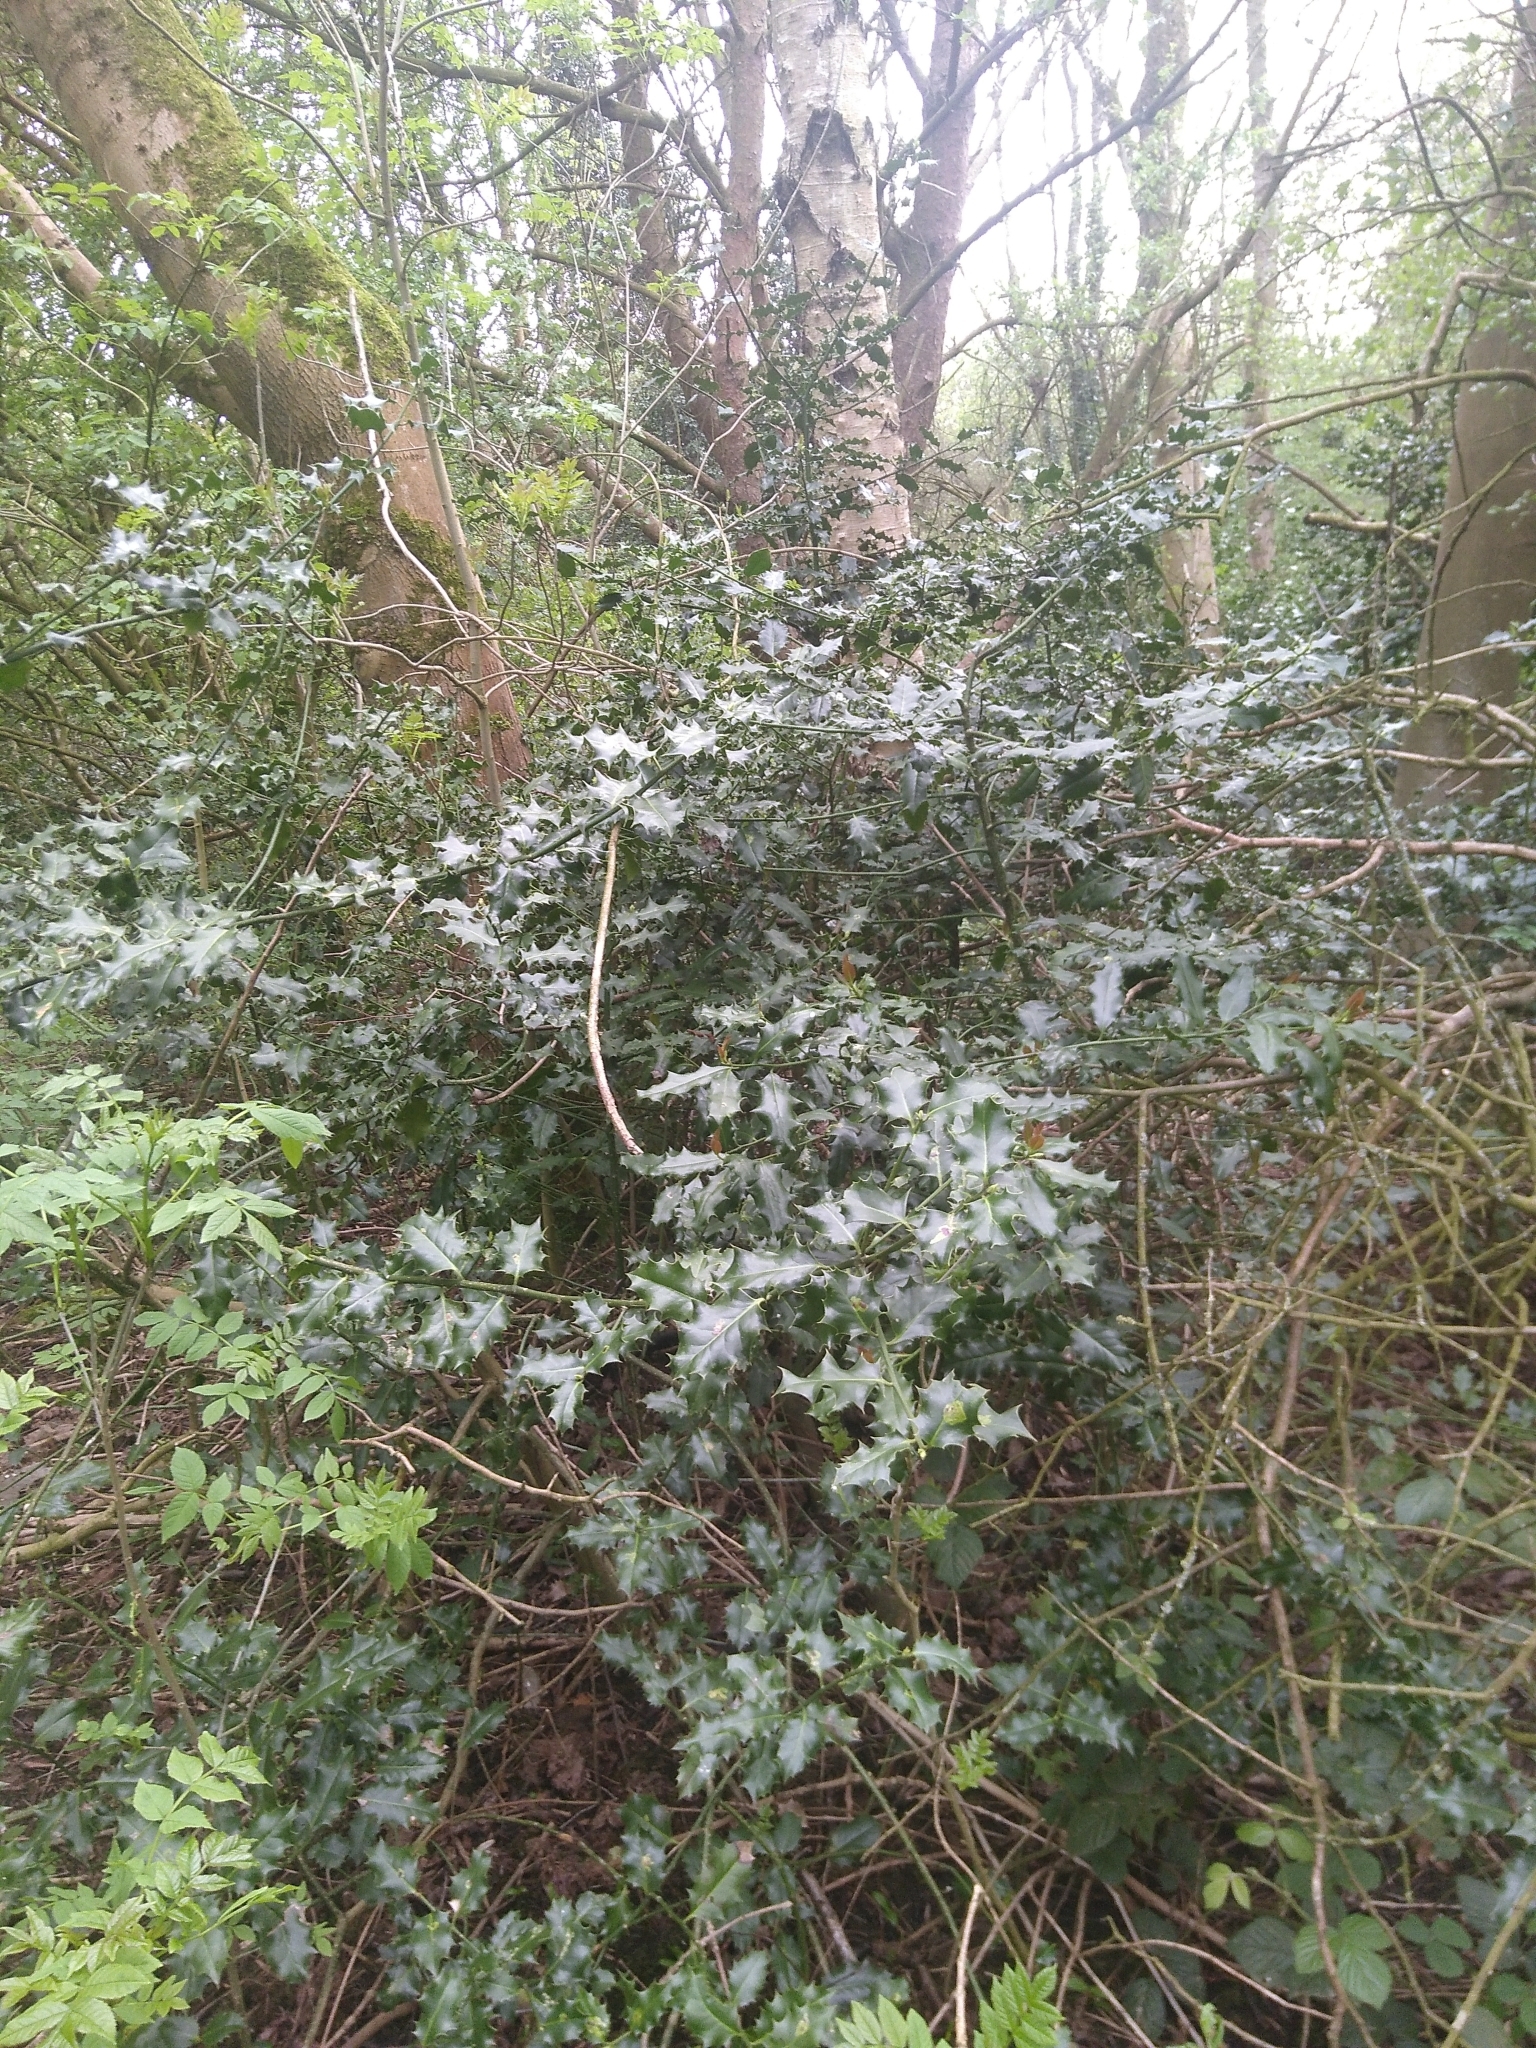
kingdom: Plantae
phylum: Tracheophyta
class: Magnoliopsida
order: Aquifoliales
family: Aquifoliaceae
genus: Ilex
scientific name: Ilex aquifolium
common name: English holly
